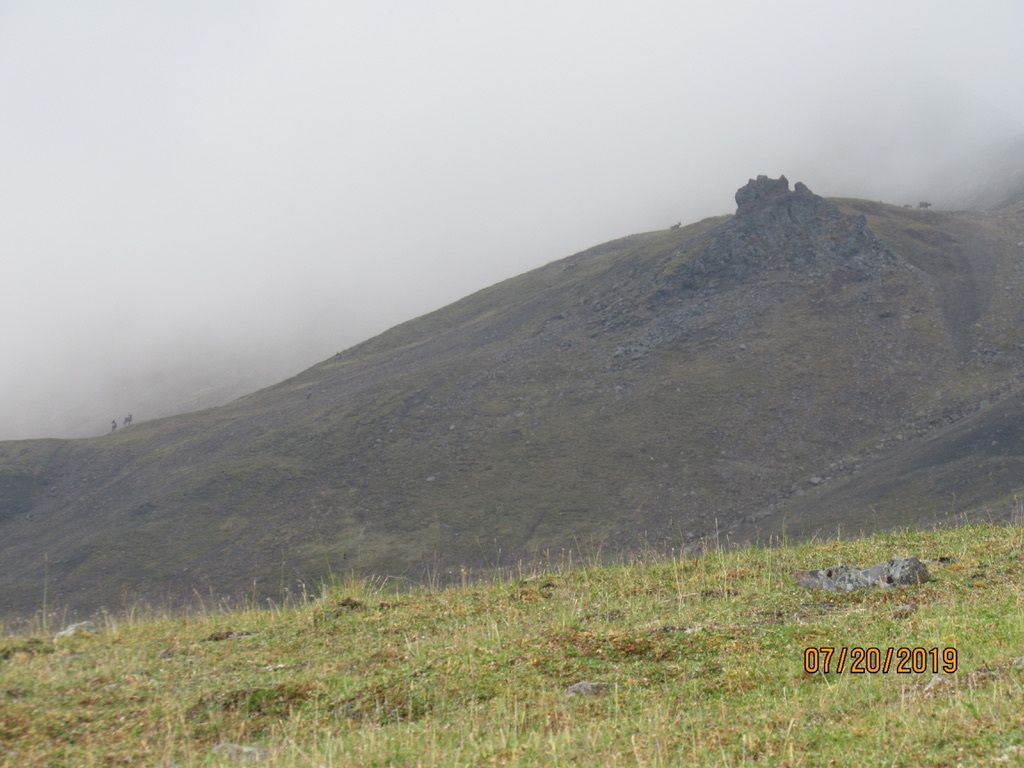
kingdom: Animalia
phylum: Chordata
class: Mammalia
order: Artiodactyla
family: Cervidae
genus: Rangifer
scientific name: Rangifer tarandus
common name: Reindeer
